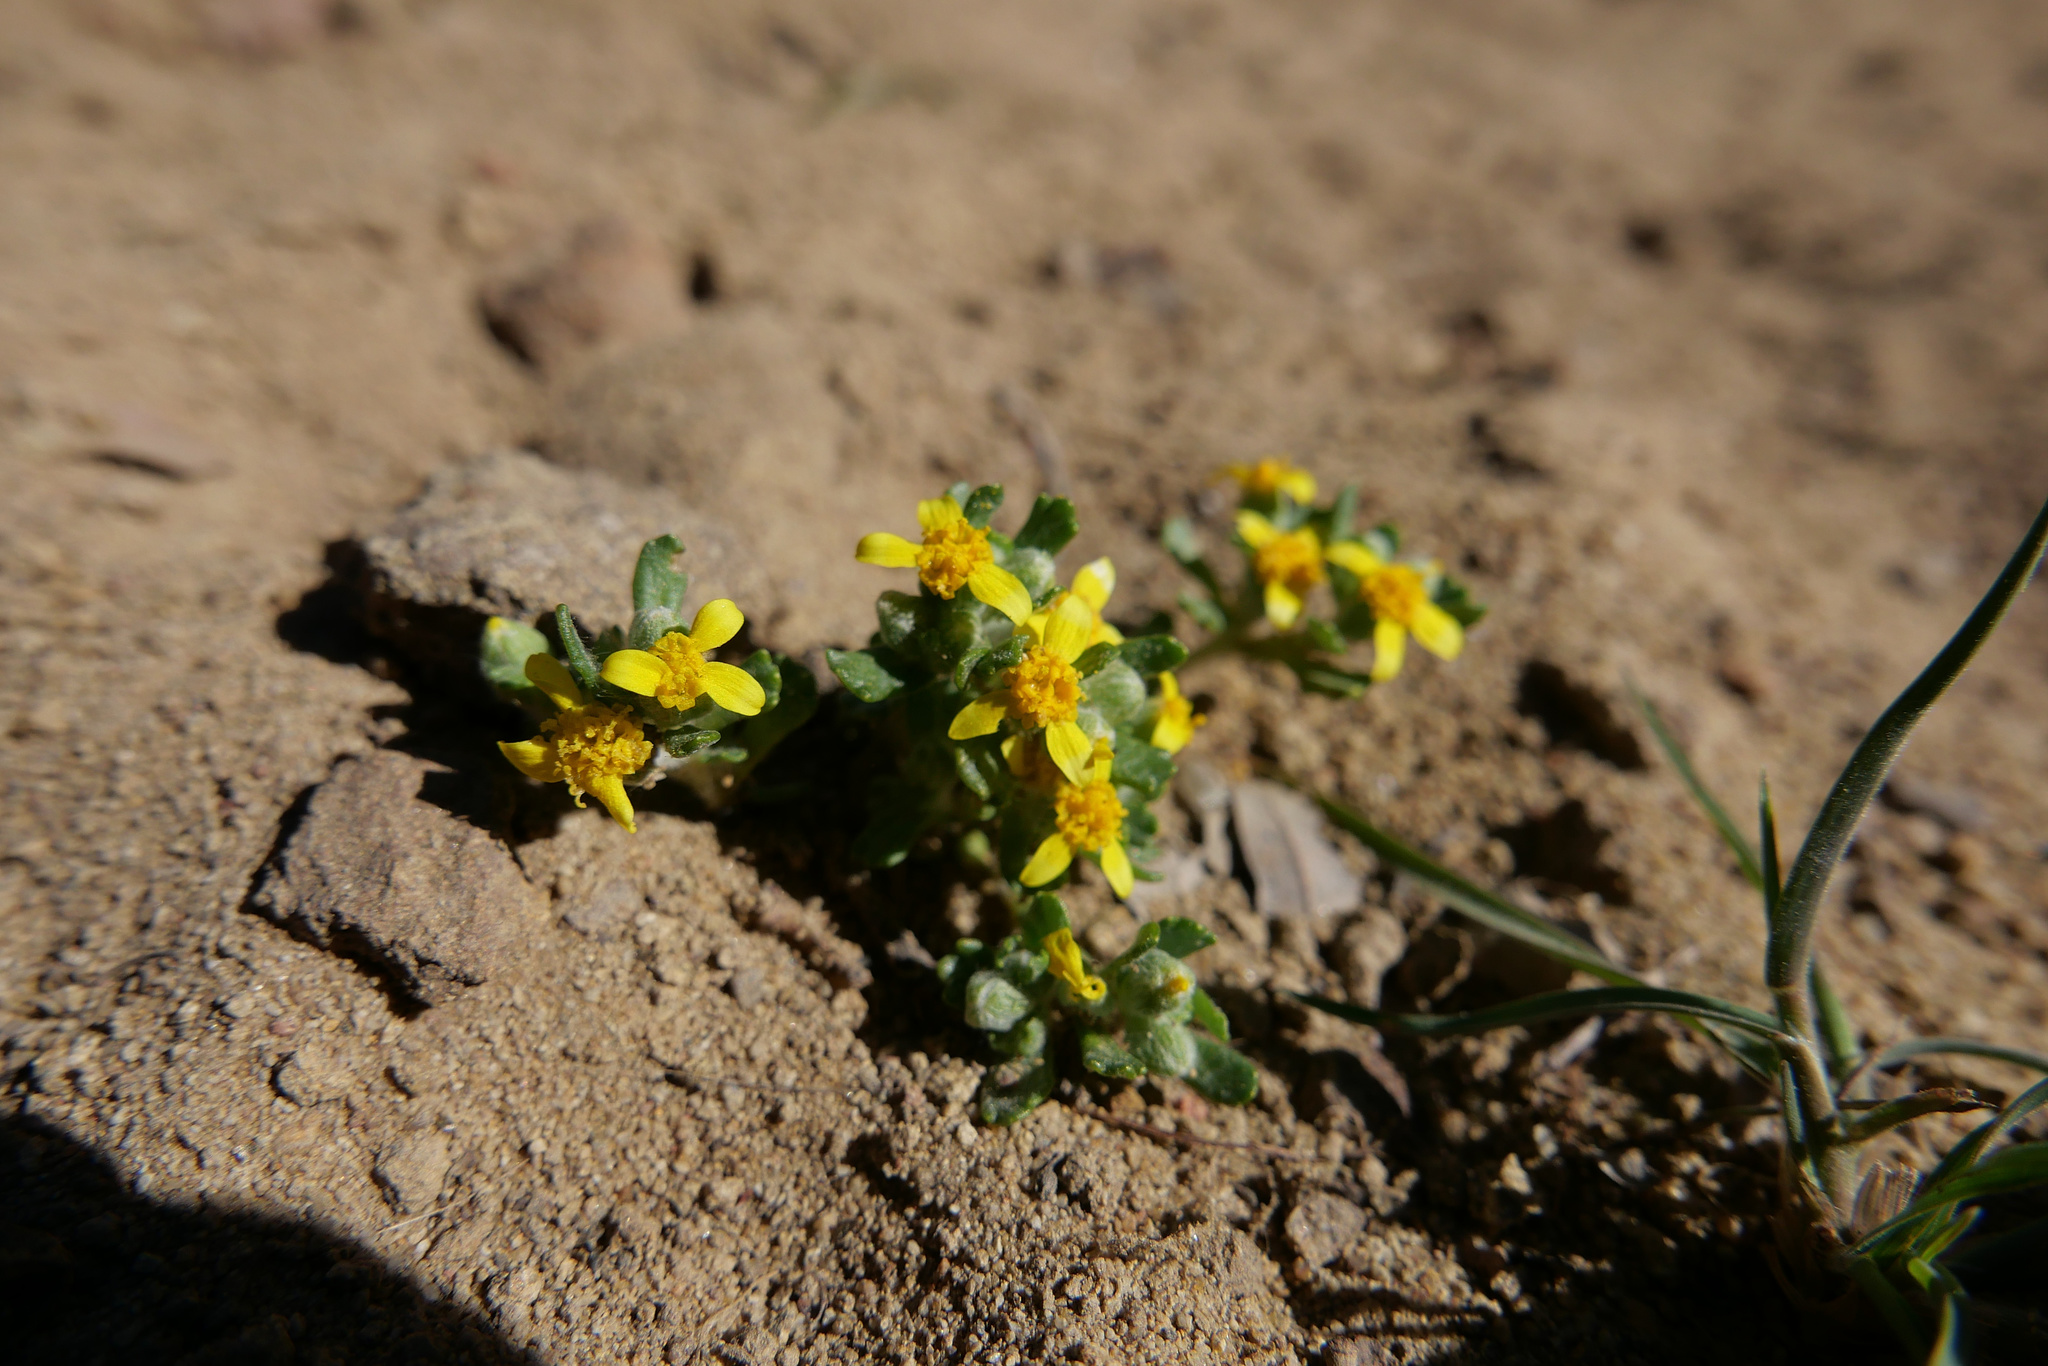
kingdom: Plantae
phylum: Tracheophyta
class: Magnoliopsida
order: Asterales
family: Asteraceae
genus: Eriophyllum
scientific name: Eriophyllum multicaule
